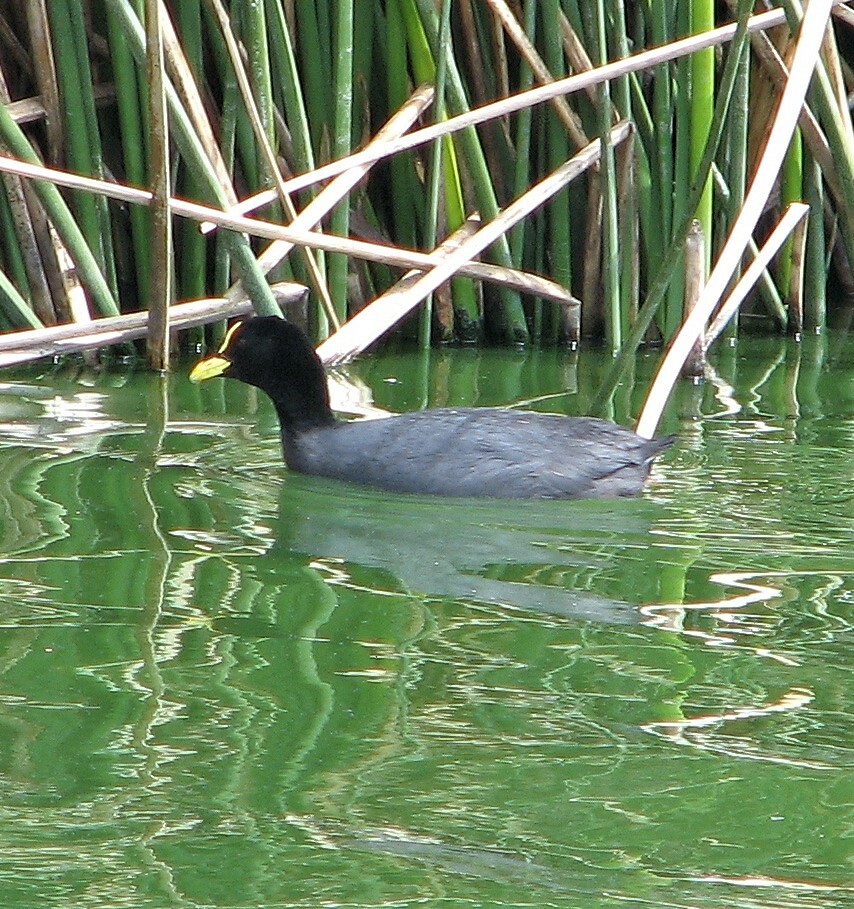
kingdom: Animalia
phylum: Chordata
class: Aves
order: Gruiformes
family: Rallidae
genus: Fulica
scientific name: Fulica armillata
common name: Red-gartered coot
